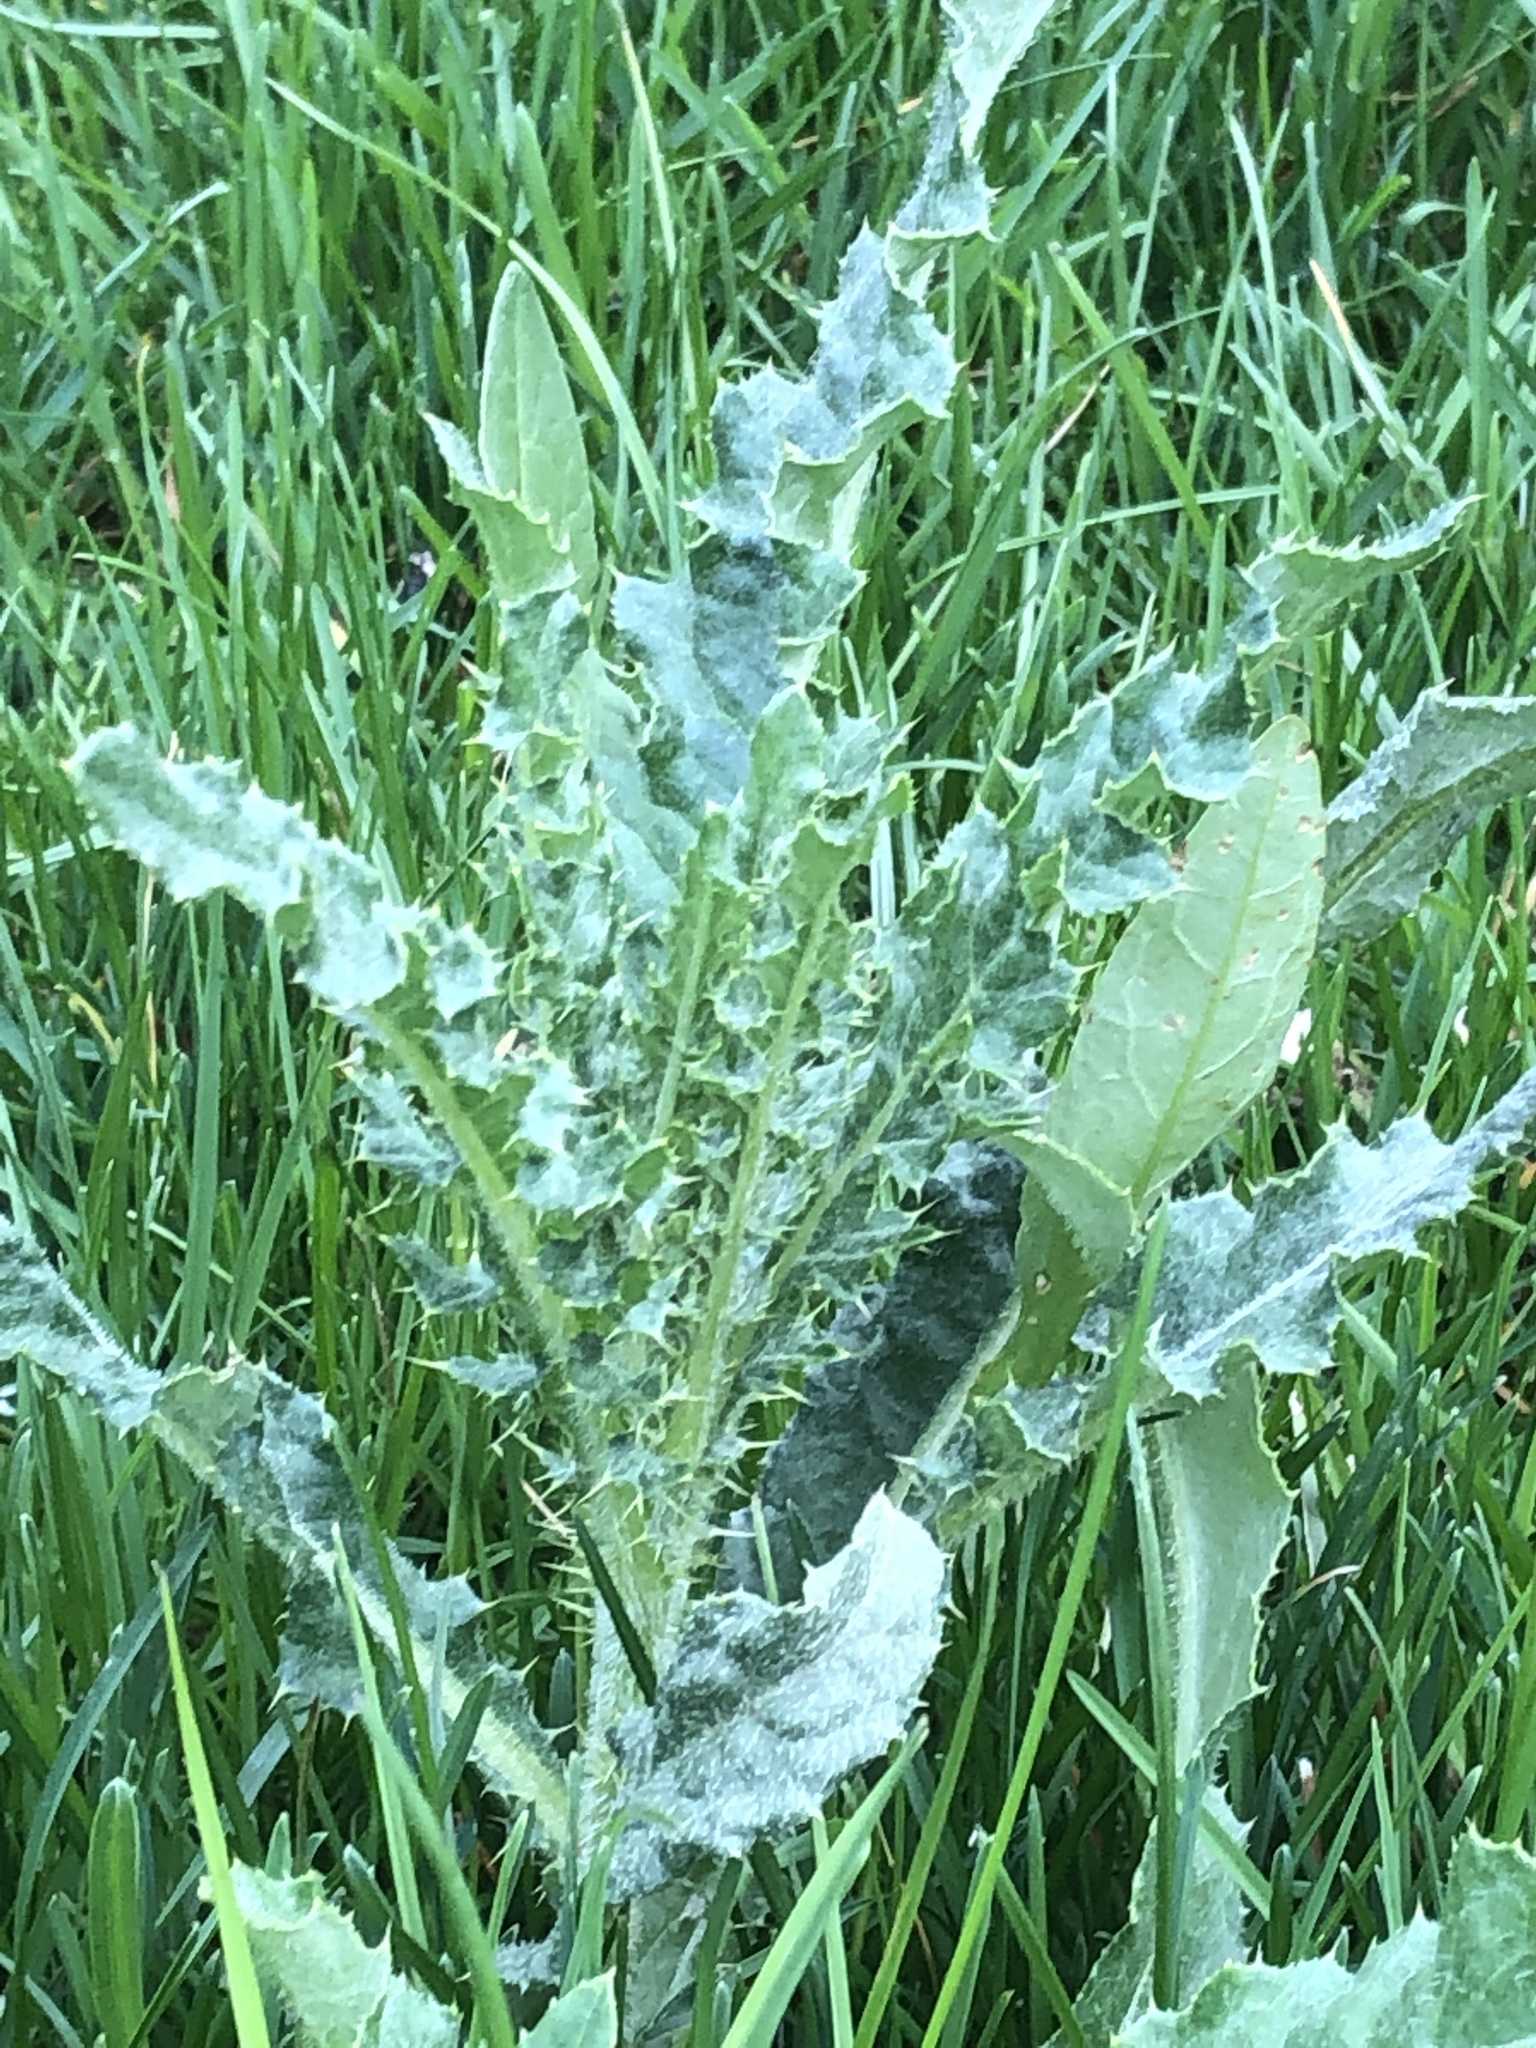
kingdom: Plantae
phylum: Tracheophyta
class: Magnoliopsida
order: Asterales
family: Asteraceae
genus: Cirsium
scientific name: Cirsium arvense
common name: Creeping thistle
